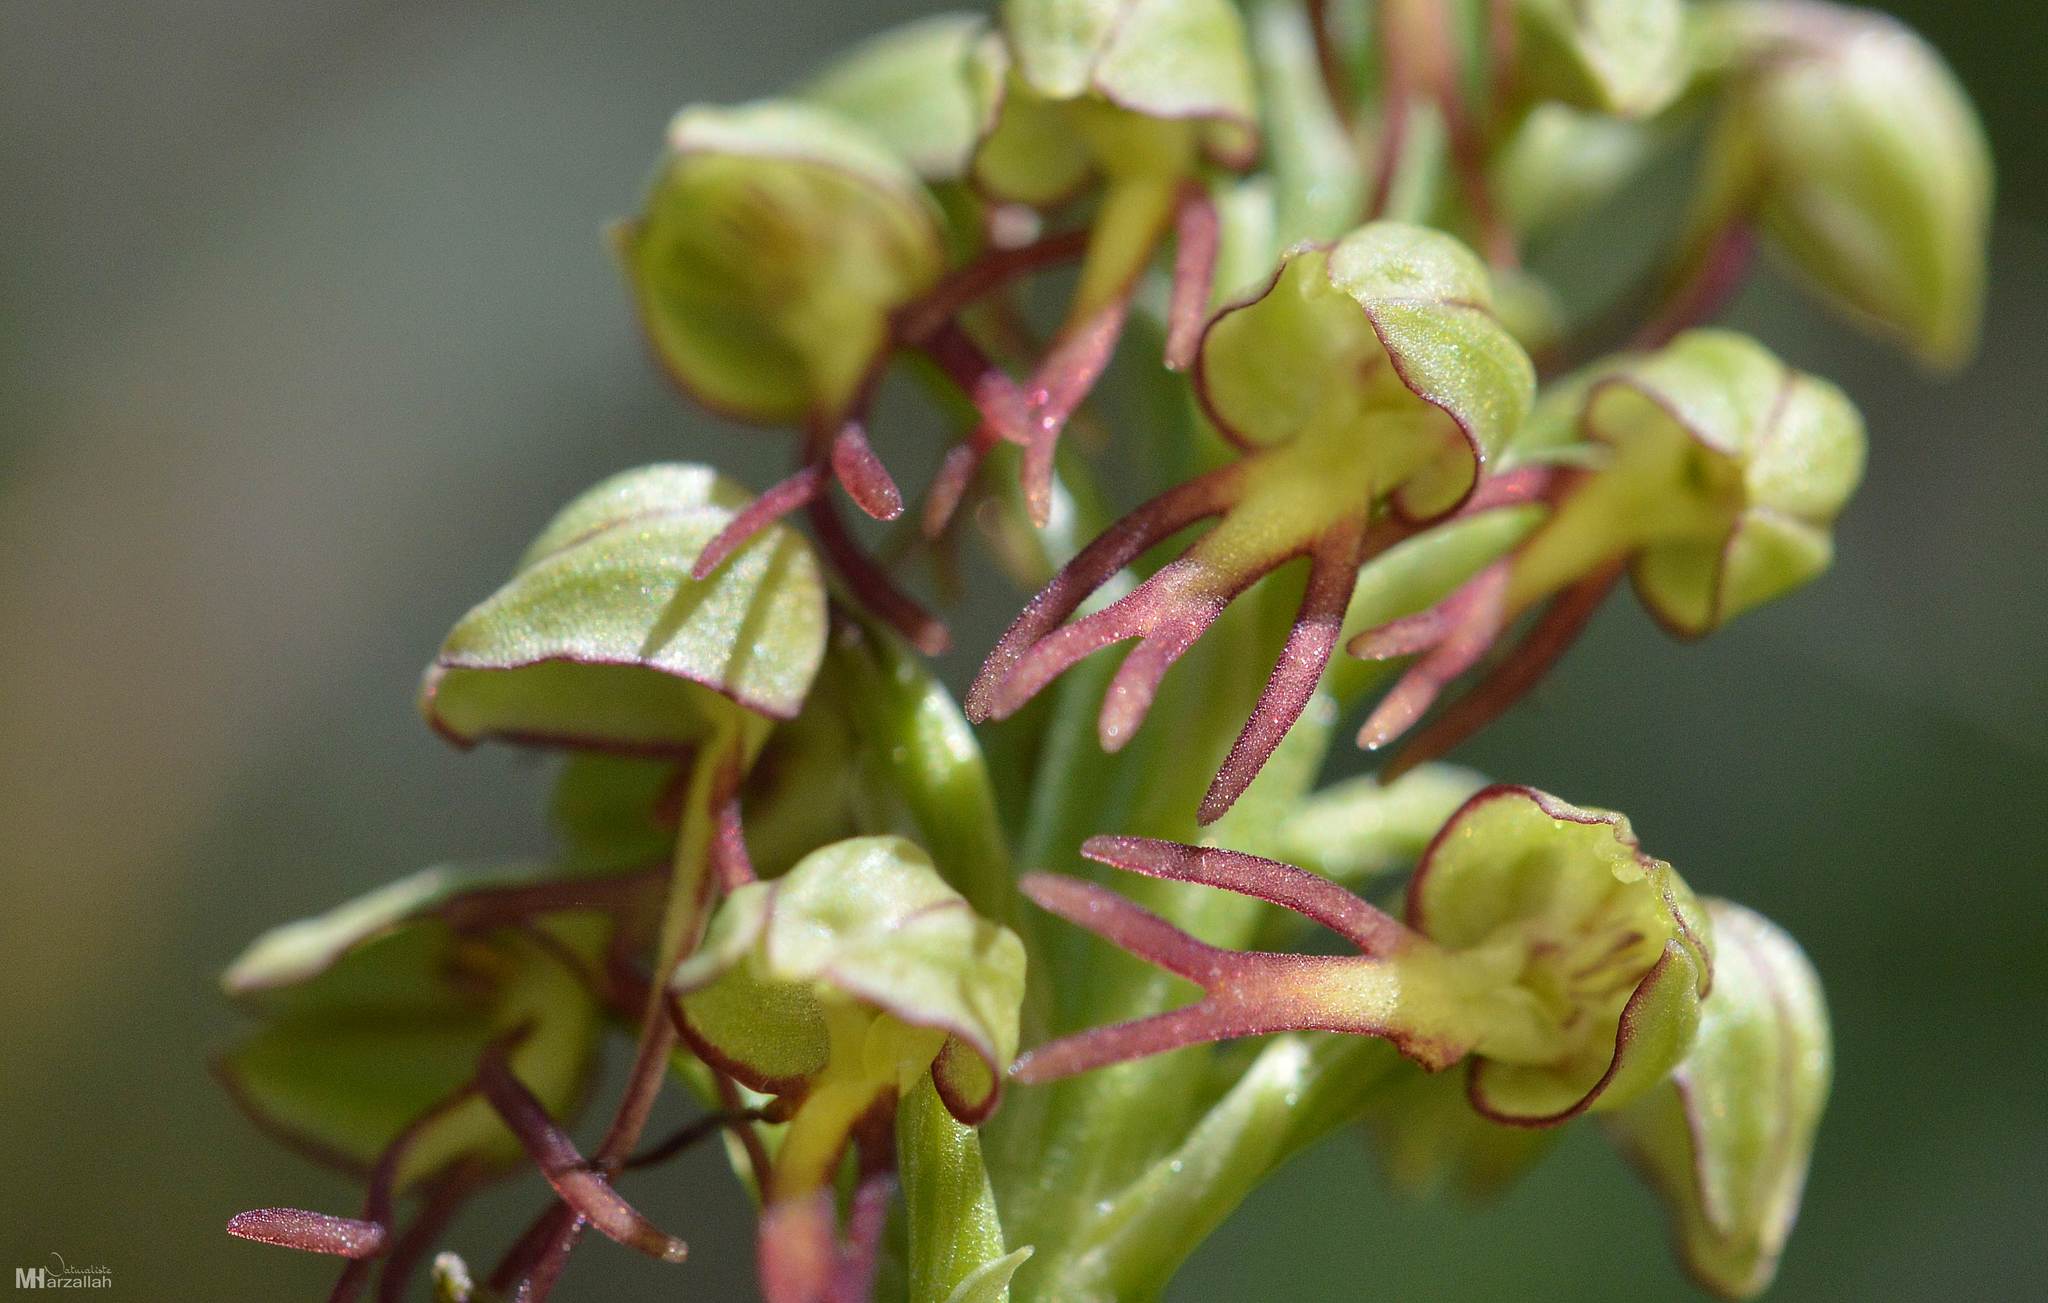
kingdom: Plantae
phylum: Tracheophyta
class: Liliopsida
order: Asparagales
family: Orchidaceae
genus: Orchis
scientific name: Orchis anthropophora
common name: Man orchid
